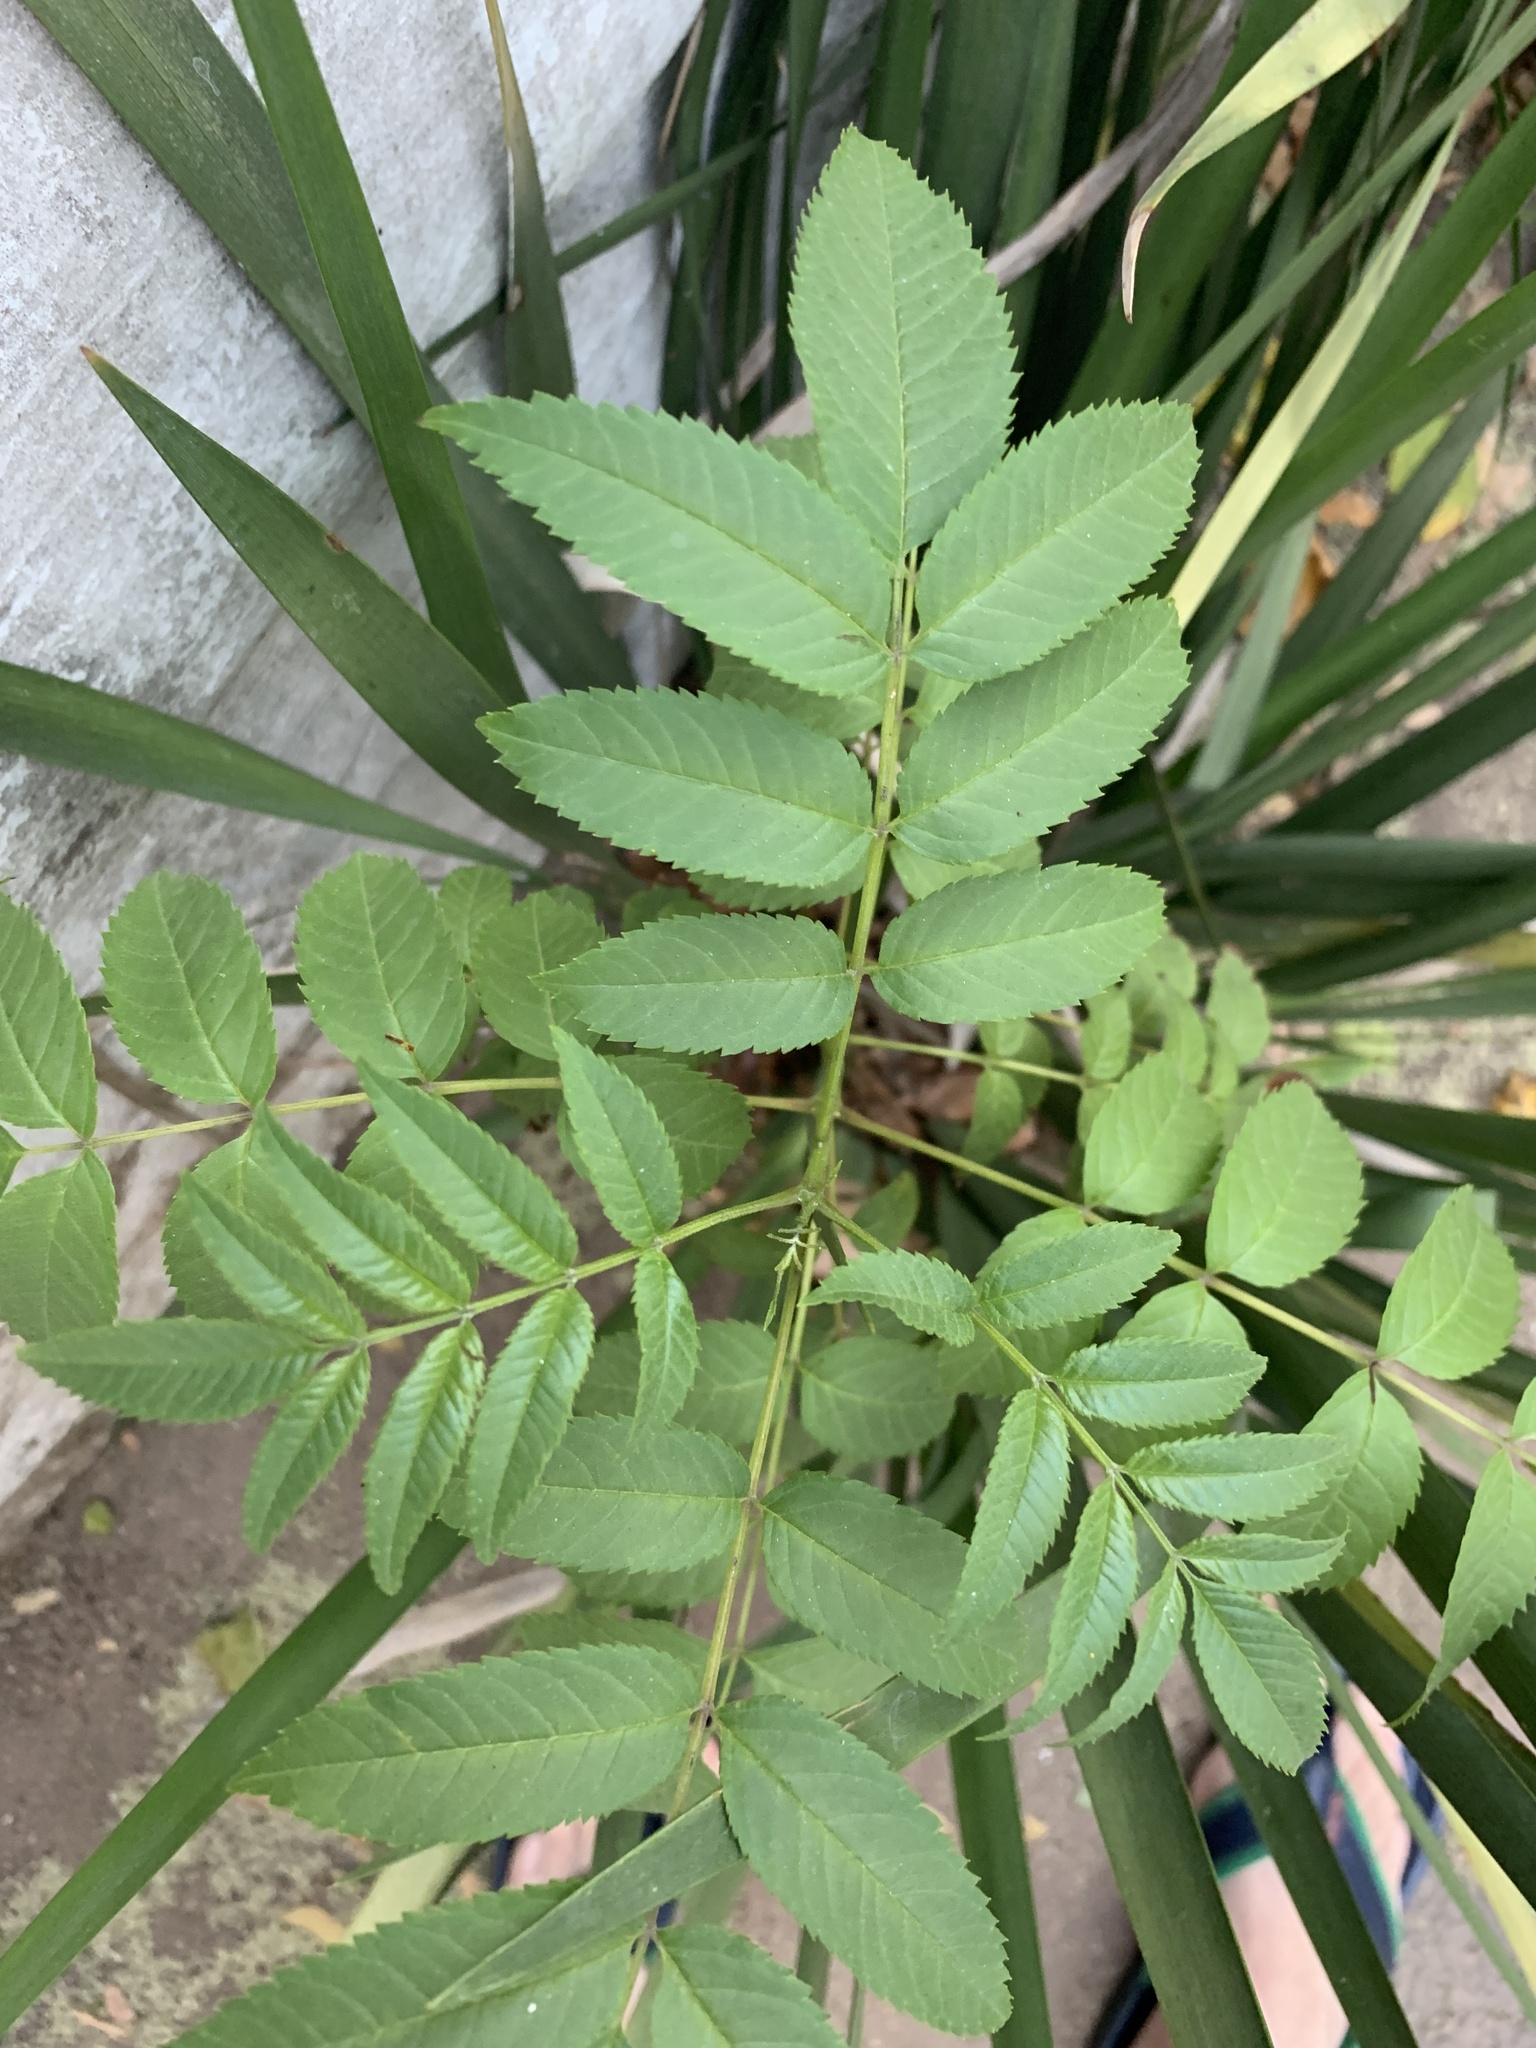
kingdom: Plantae
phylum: Tracheophyta
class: Magnoliopsida
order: Lamiales
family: Bignoniaceae
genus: Tecoma
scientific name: Tecoma stans
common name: Yellow trumpetbush
